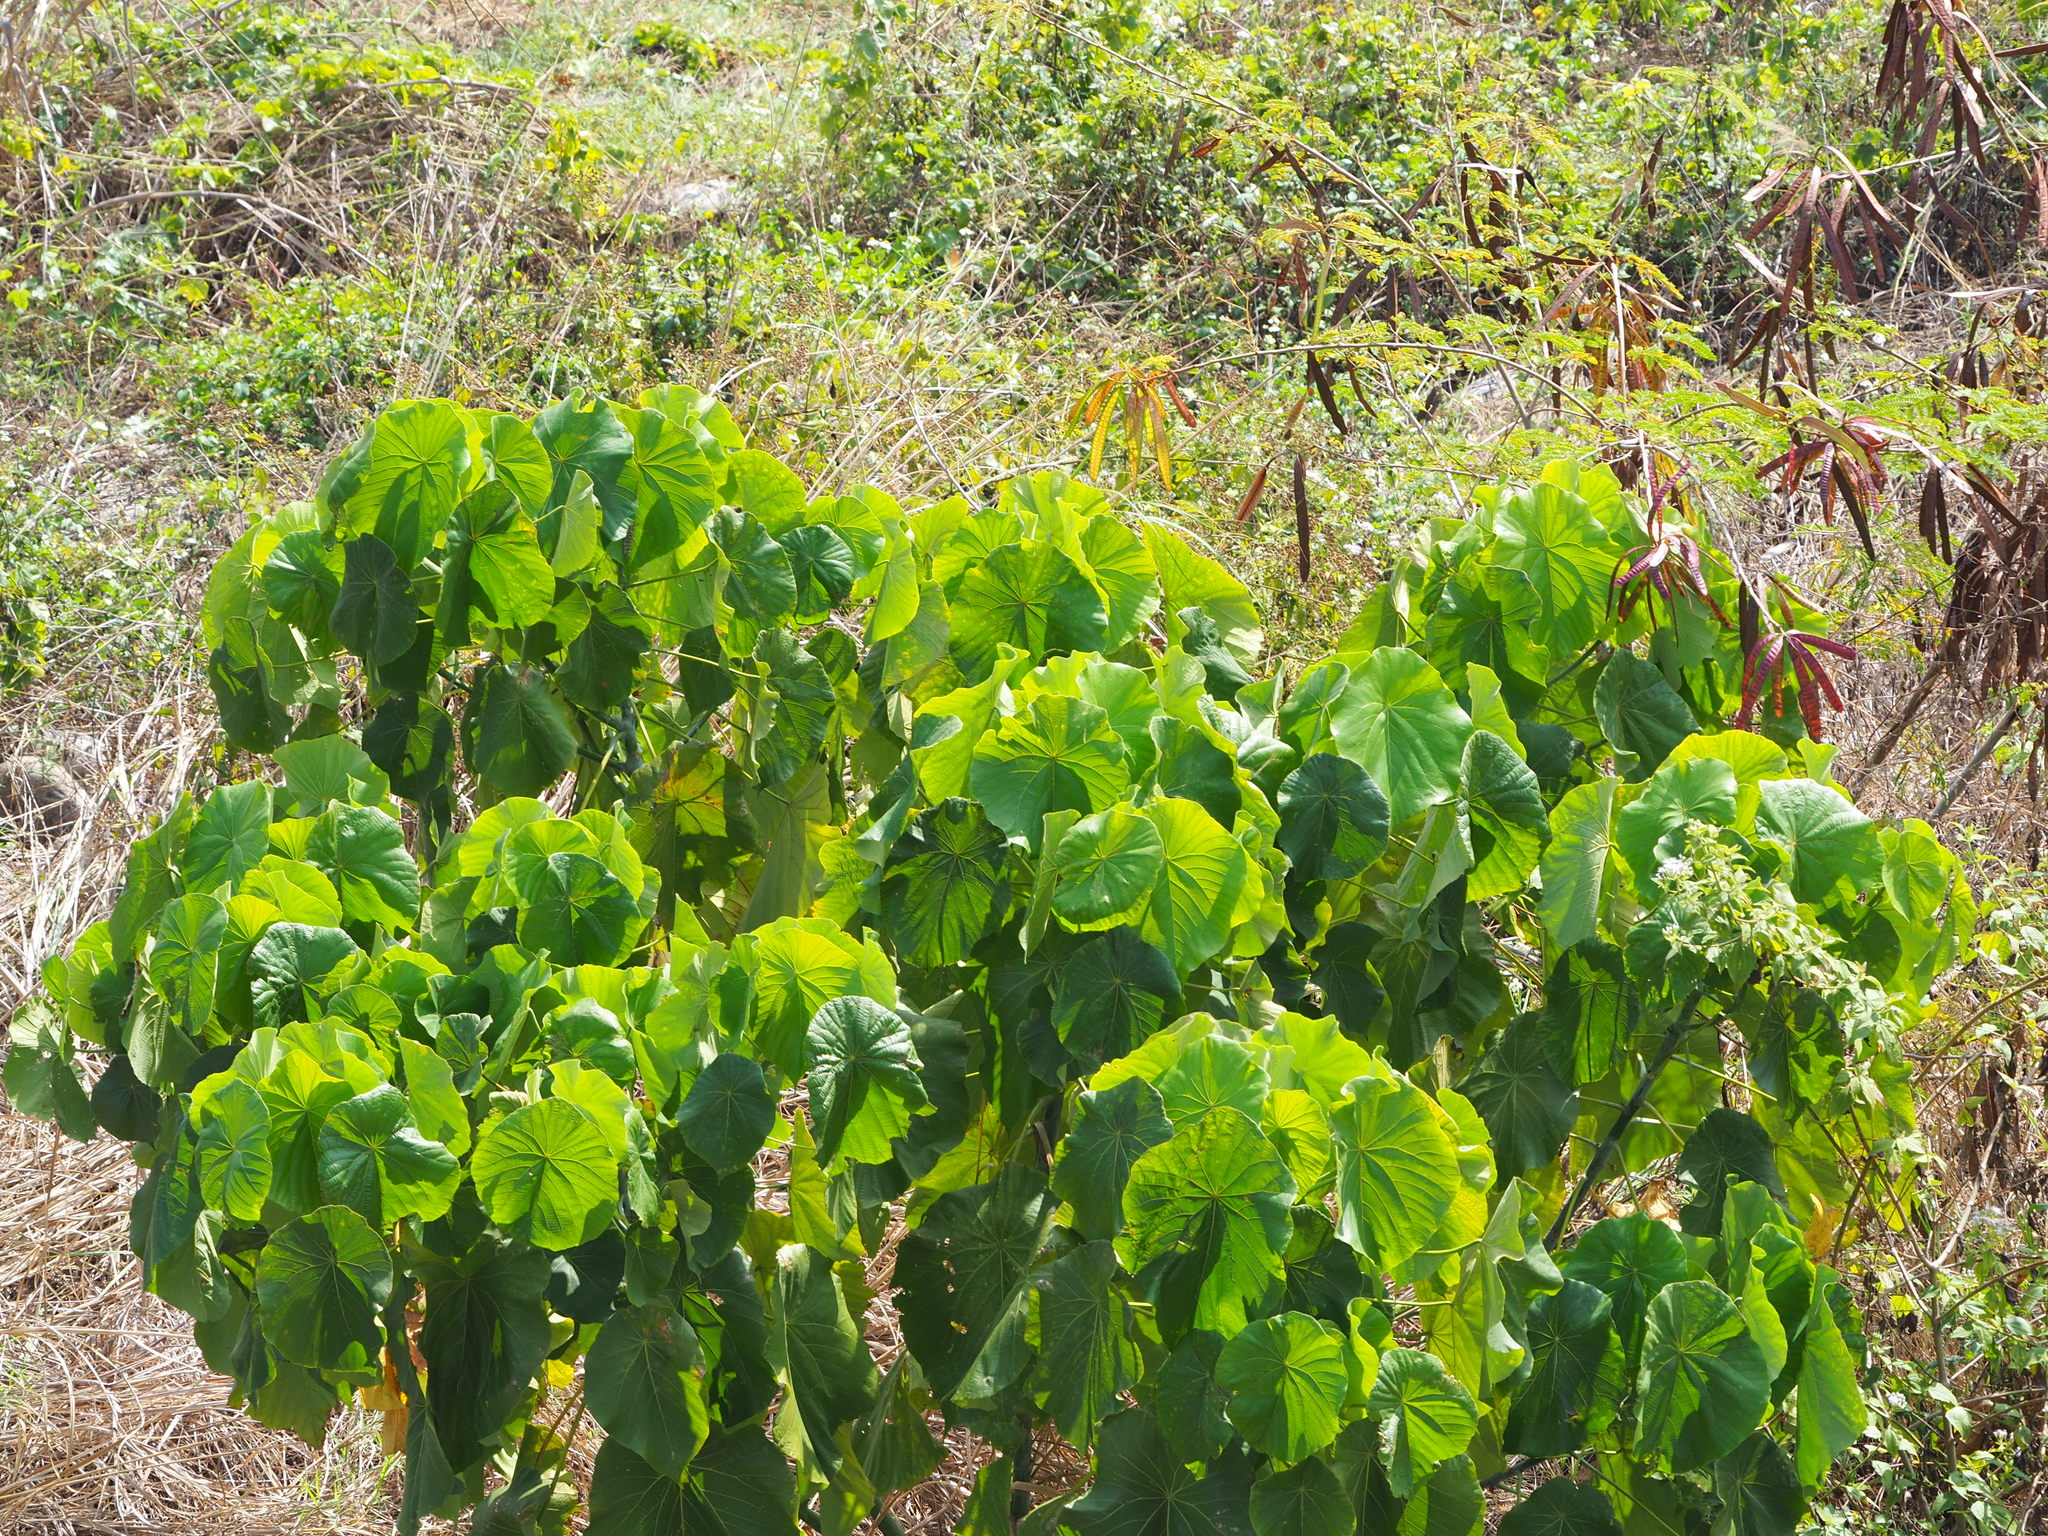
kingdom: Plantae
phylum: Tracheophyta
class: Magnoliopsida
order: Malpighiales
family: Euphorbiaceae
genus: Macaranga
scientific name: Macaranga tanarius
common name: Parasol leaf tree
